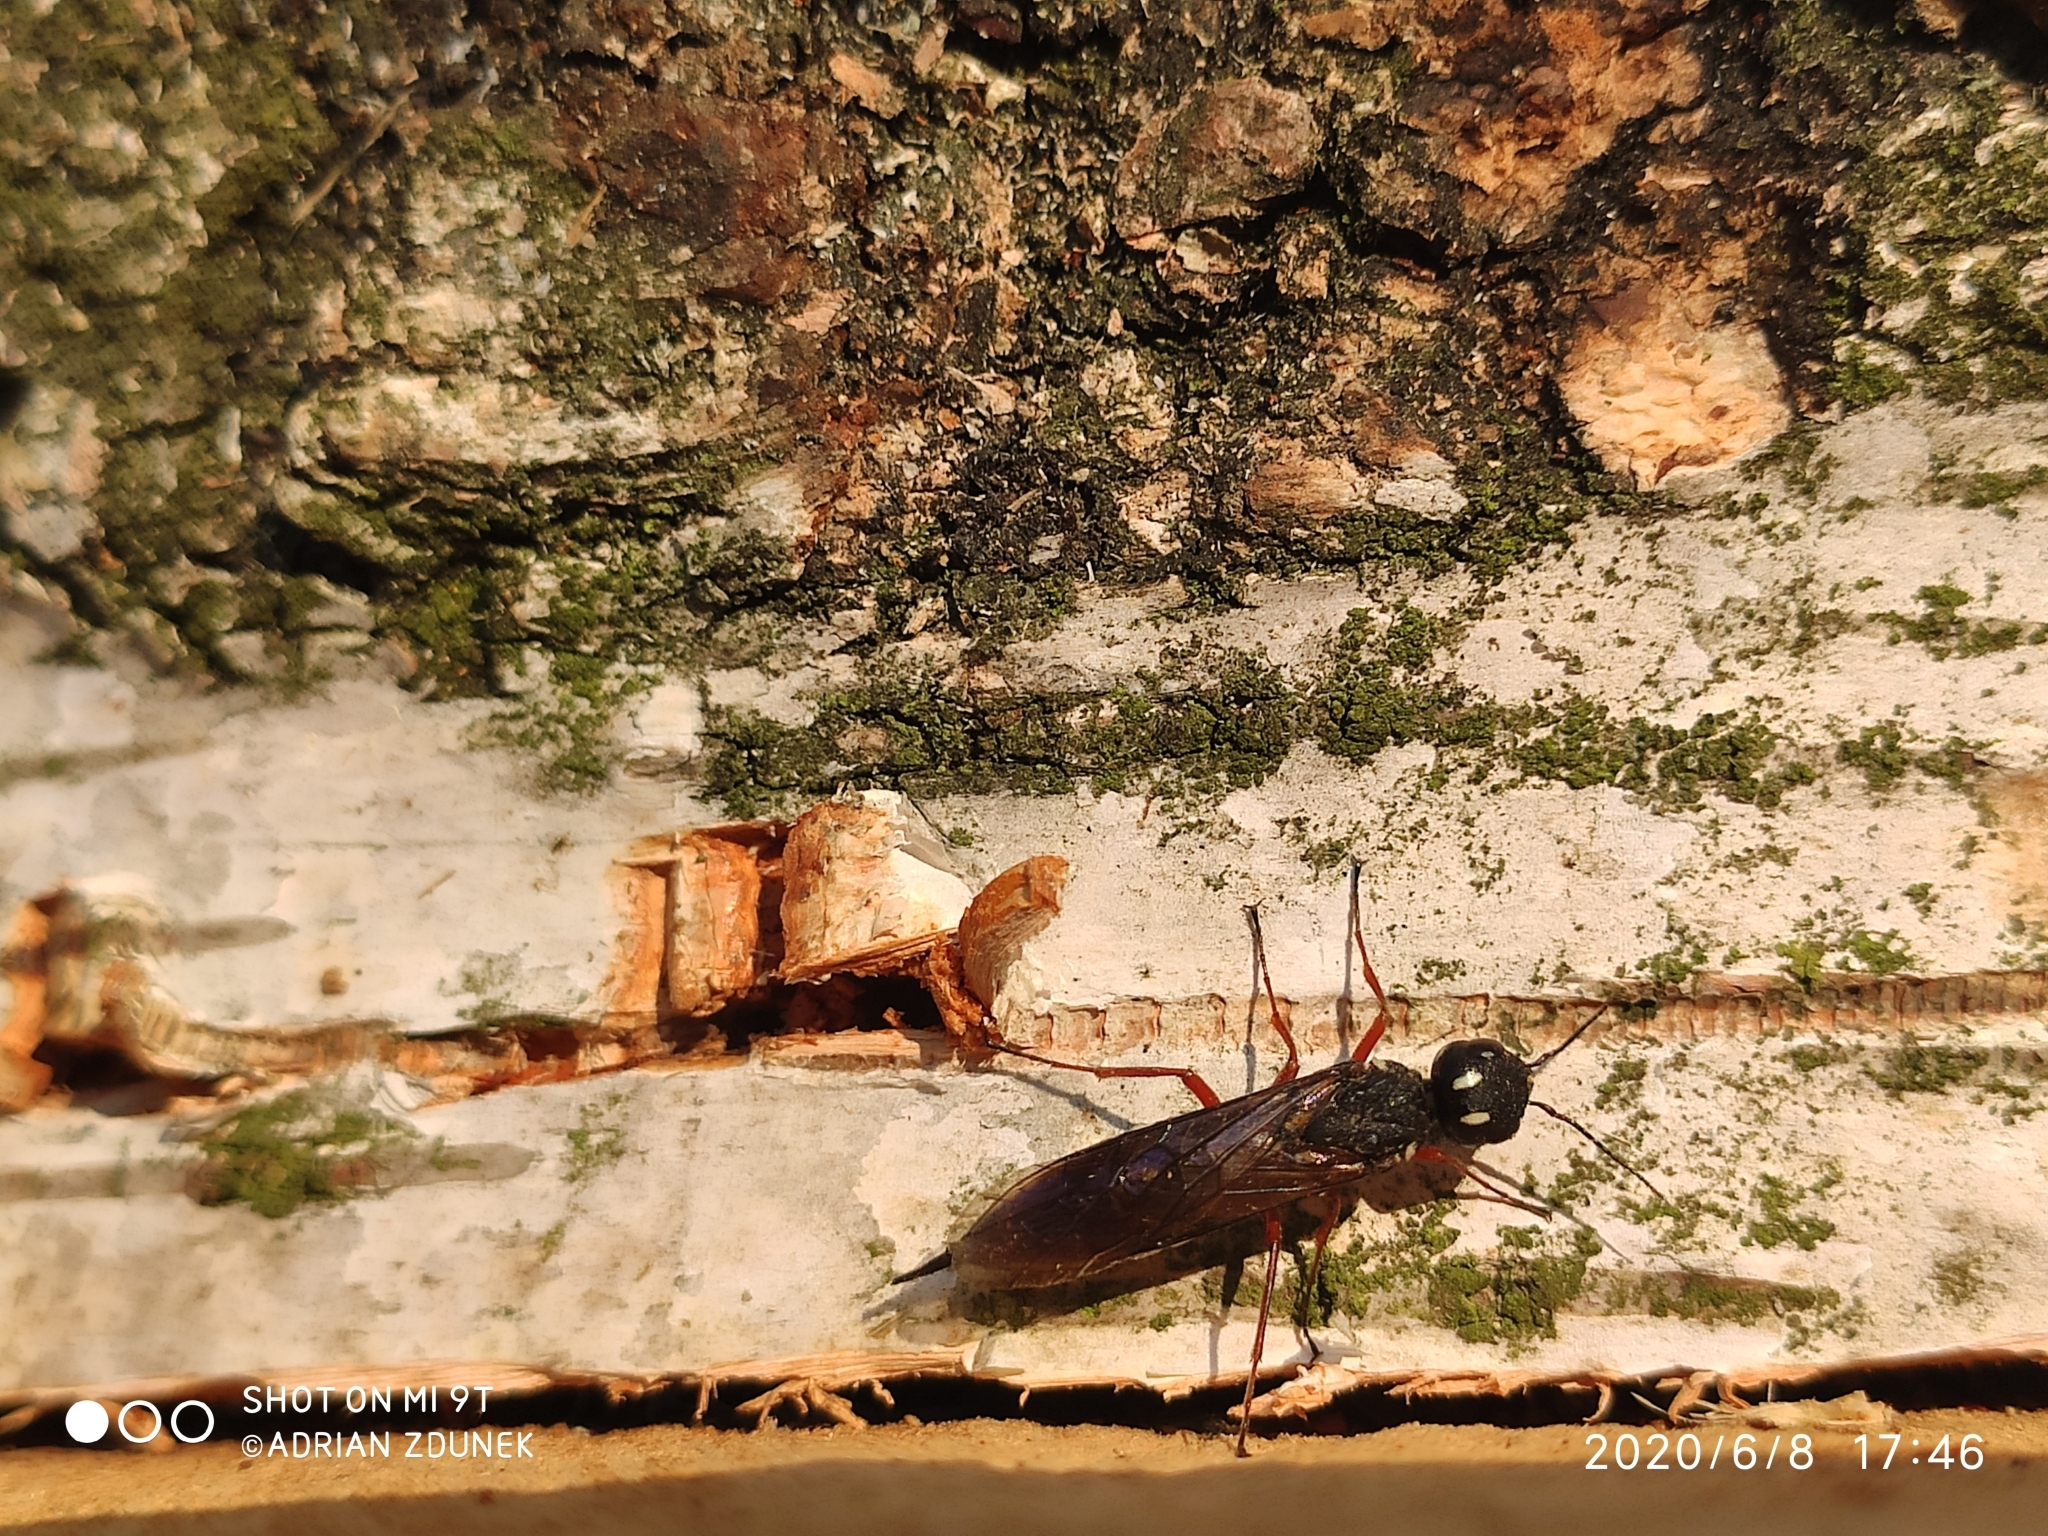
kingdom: Animalia
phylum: Arthropoda
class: Insecta
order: Hymenoptera
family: Xiphydriidae
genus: Xiphydria
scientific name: Xiphydria camelus
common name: Alder wood-wasp
